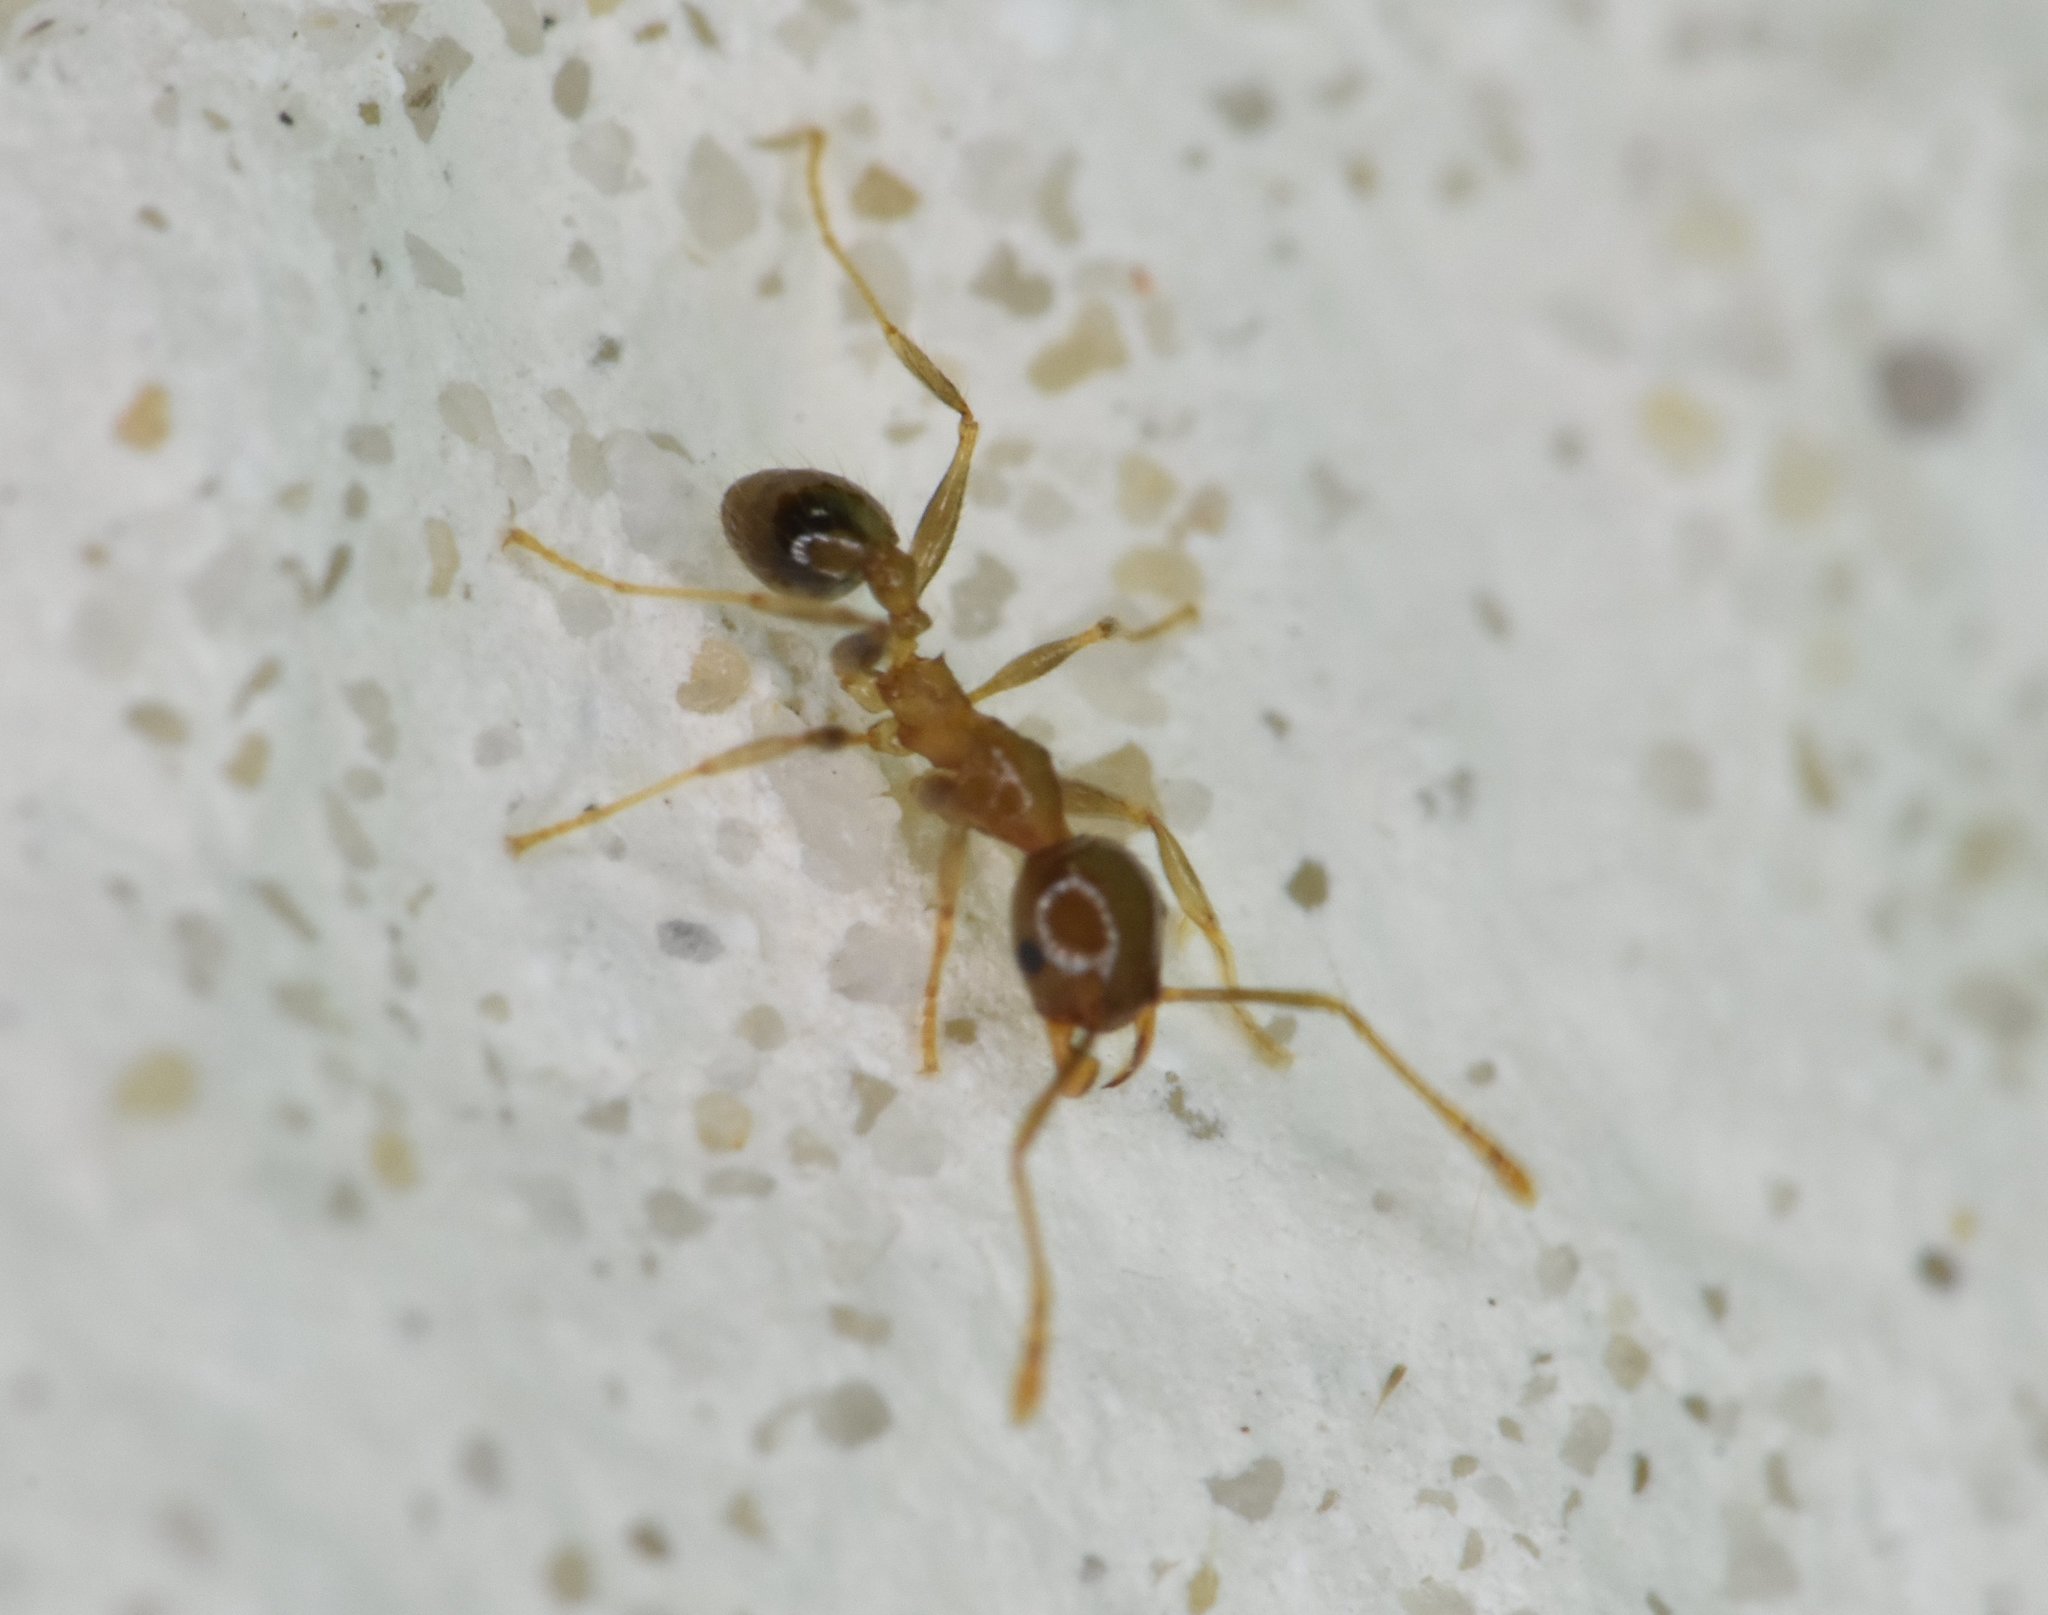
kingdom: Animalia
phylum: Arthropoda
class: Insecta
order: Hymenoptera
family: Formicidae
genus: Pheidole
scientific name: Pheidole megacephala
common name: Bigheaded ant
